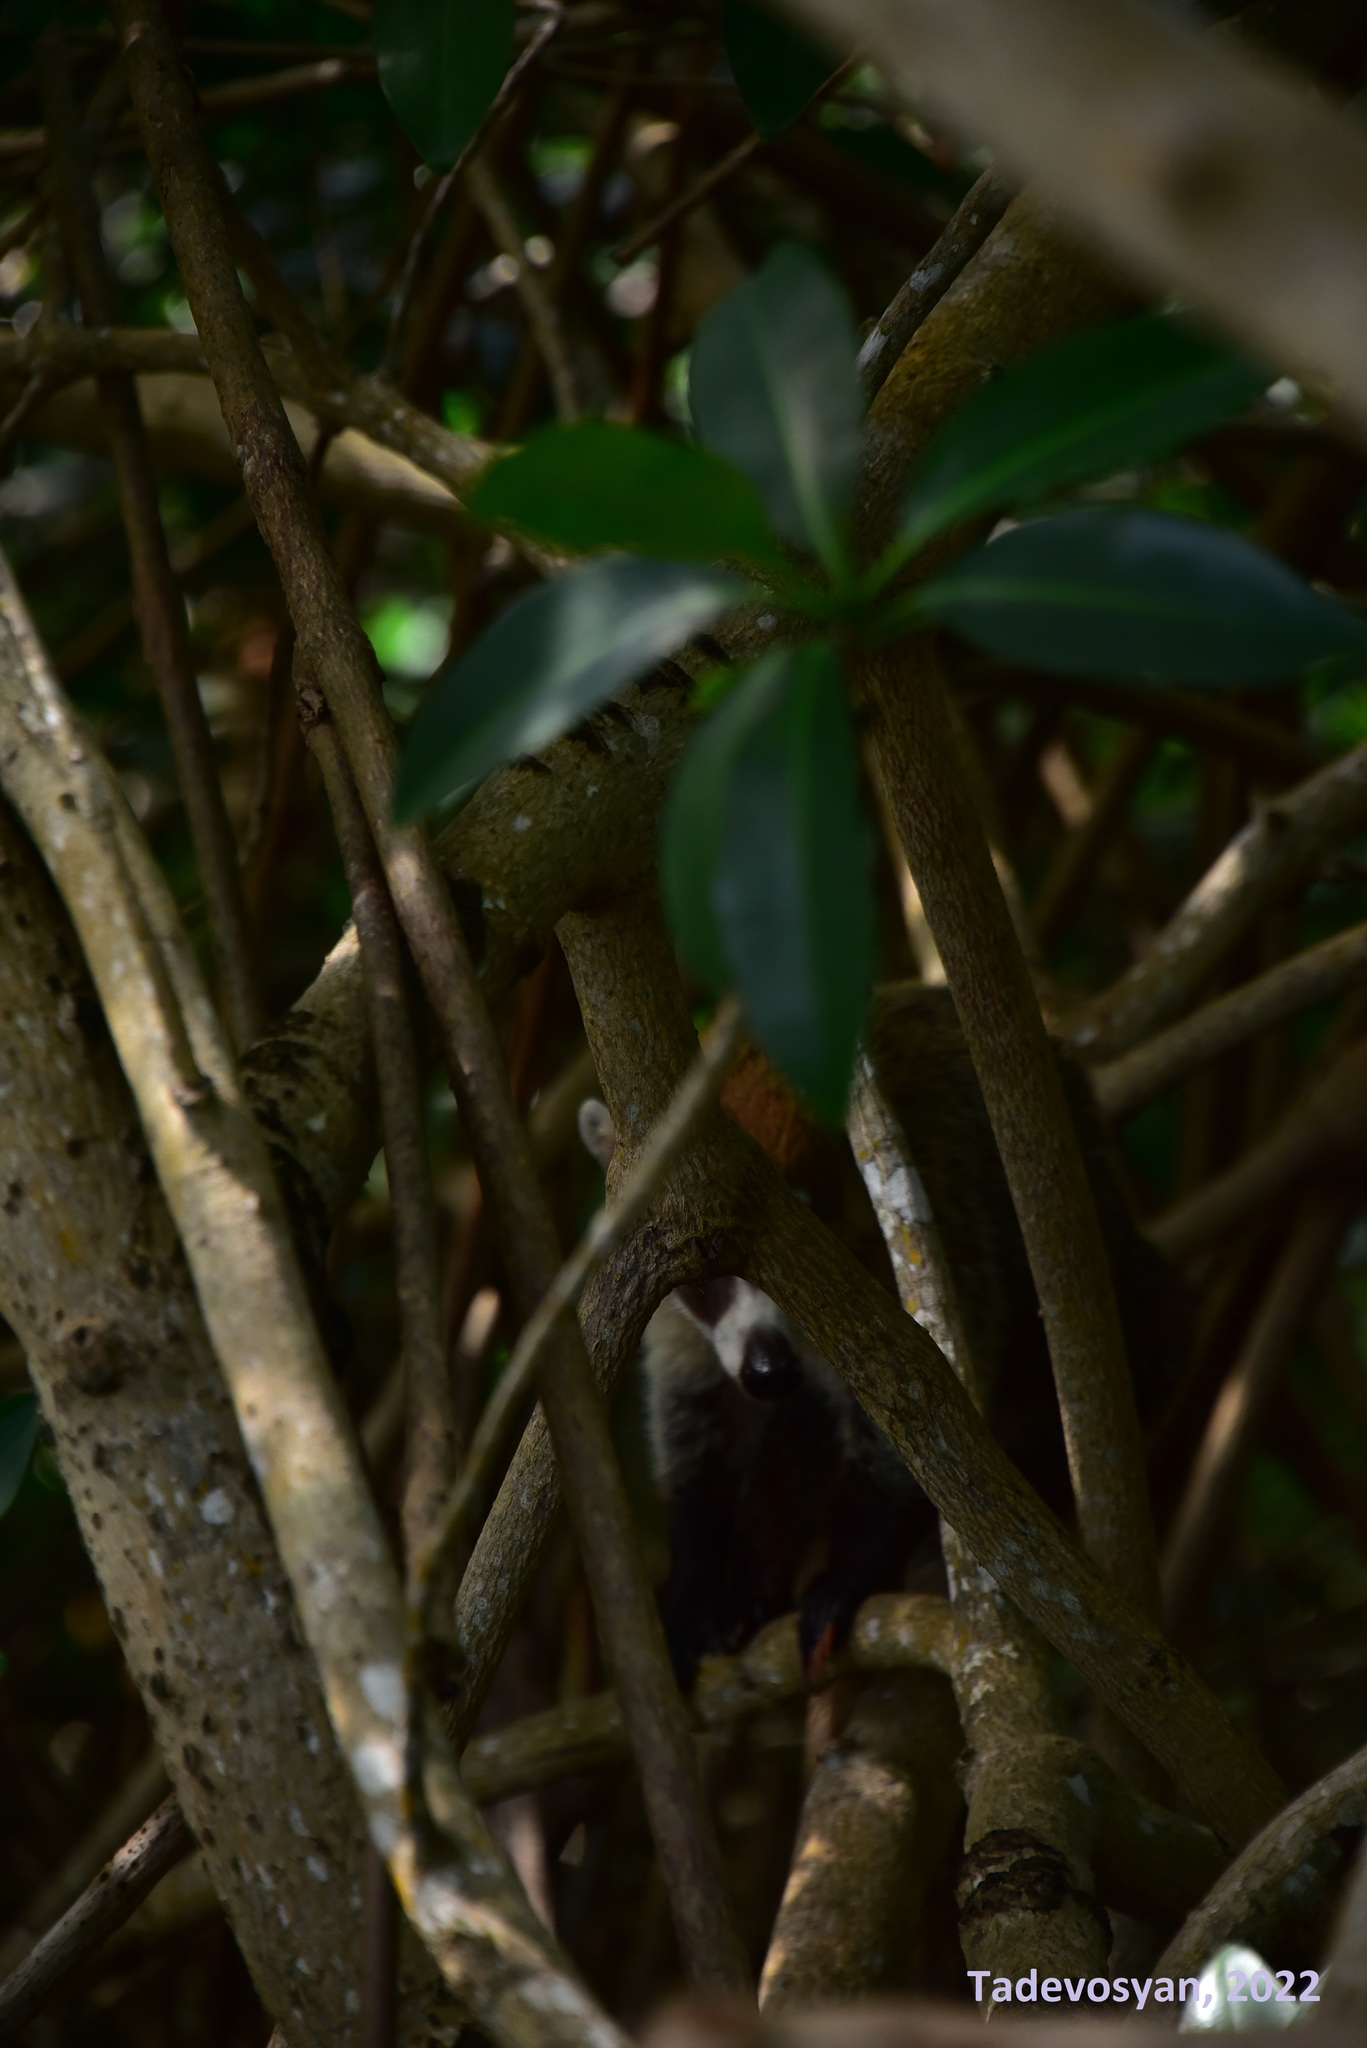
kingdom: Animalia
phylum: Chordata
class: Mammalia
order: Carnivora
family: Procyonidae
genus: Nasua
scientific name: Nasua narica
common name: White-nosed coati
